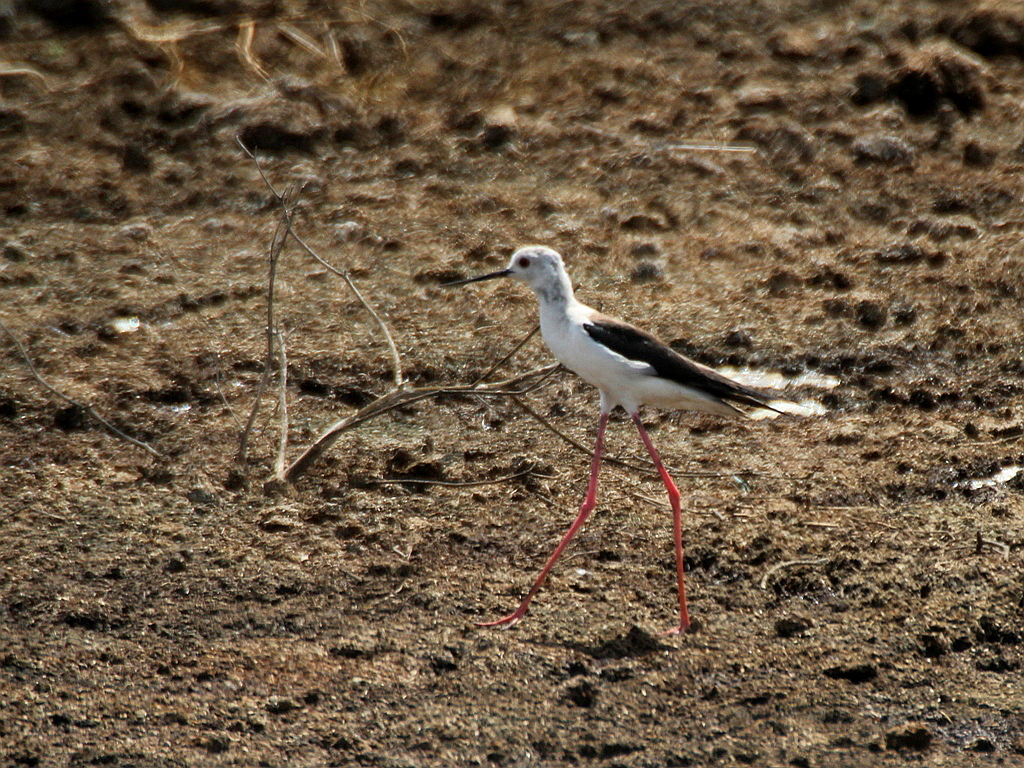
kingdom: Animalia
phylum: Chordata
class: Aves
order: Charadriiformes
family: Recurvirostridae
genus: Himantopus
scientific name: Himantopus himantopus
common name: Black-winged stilt
